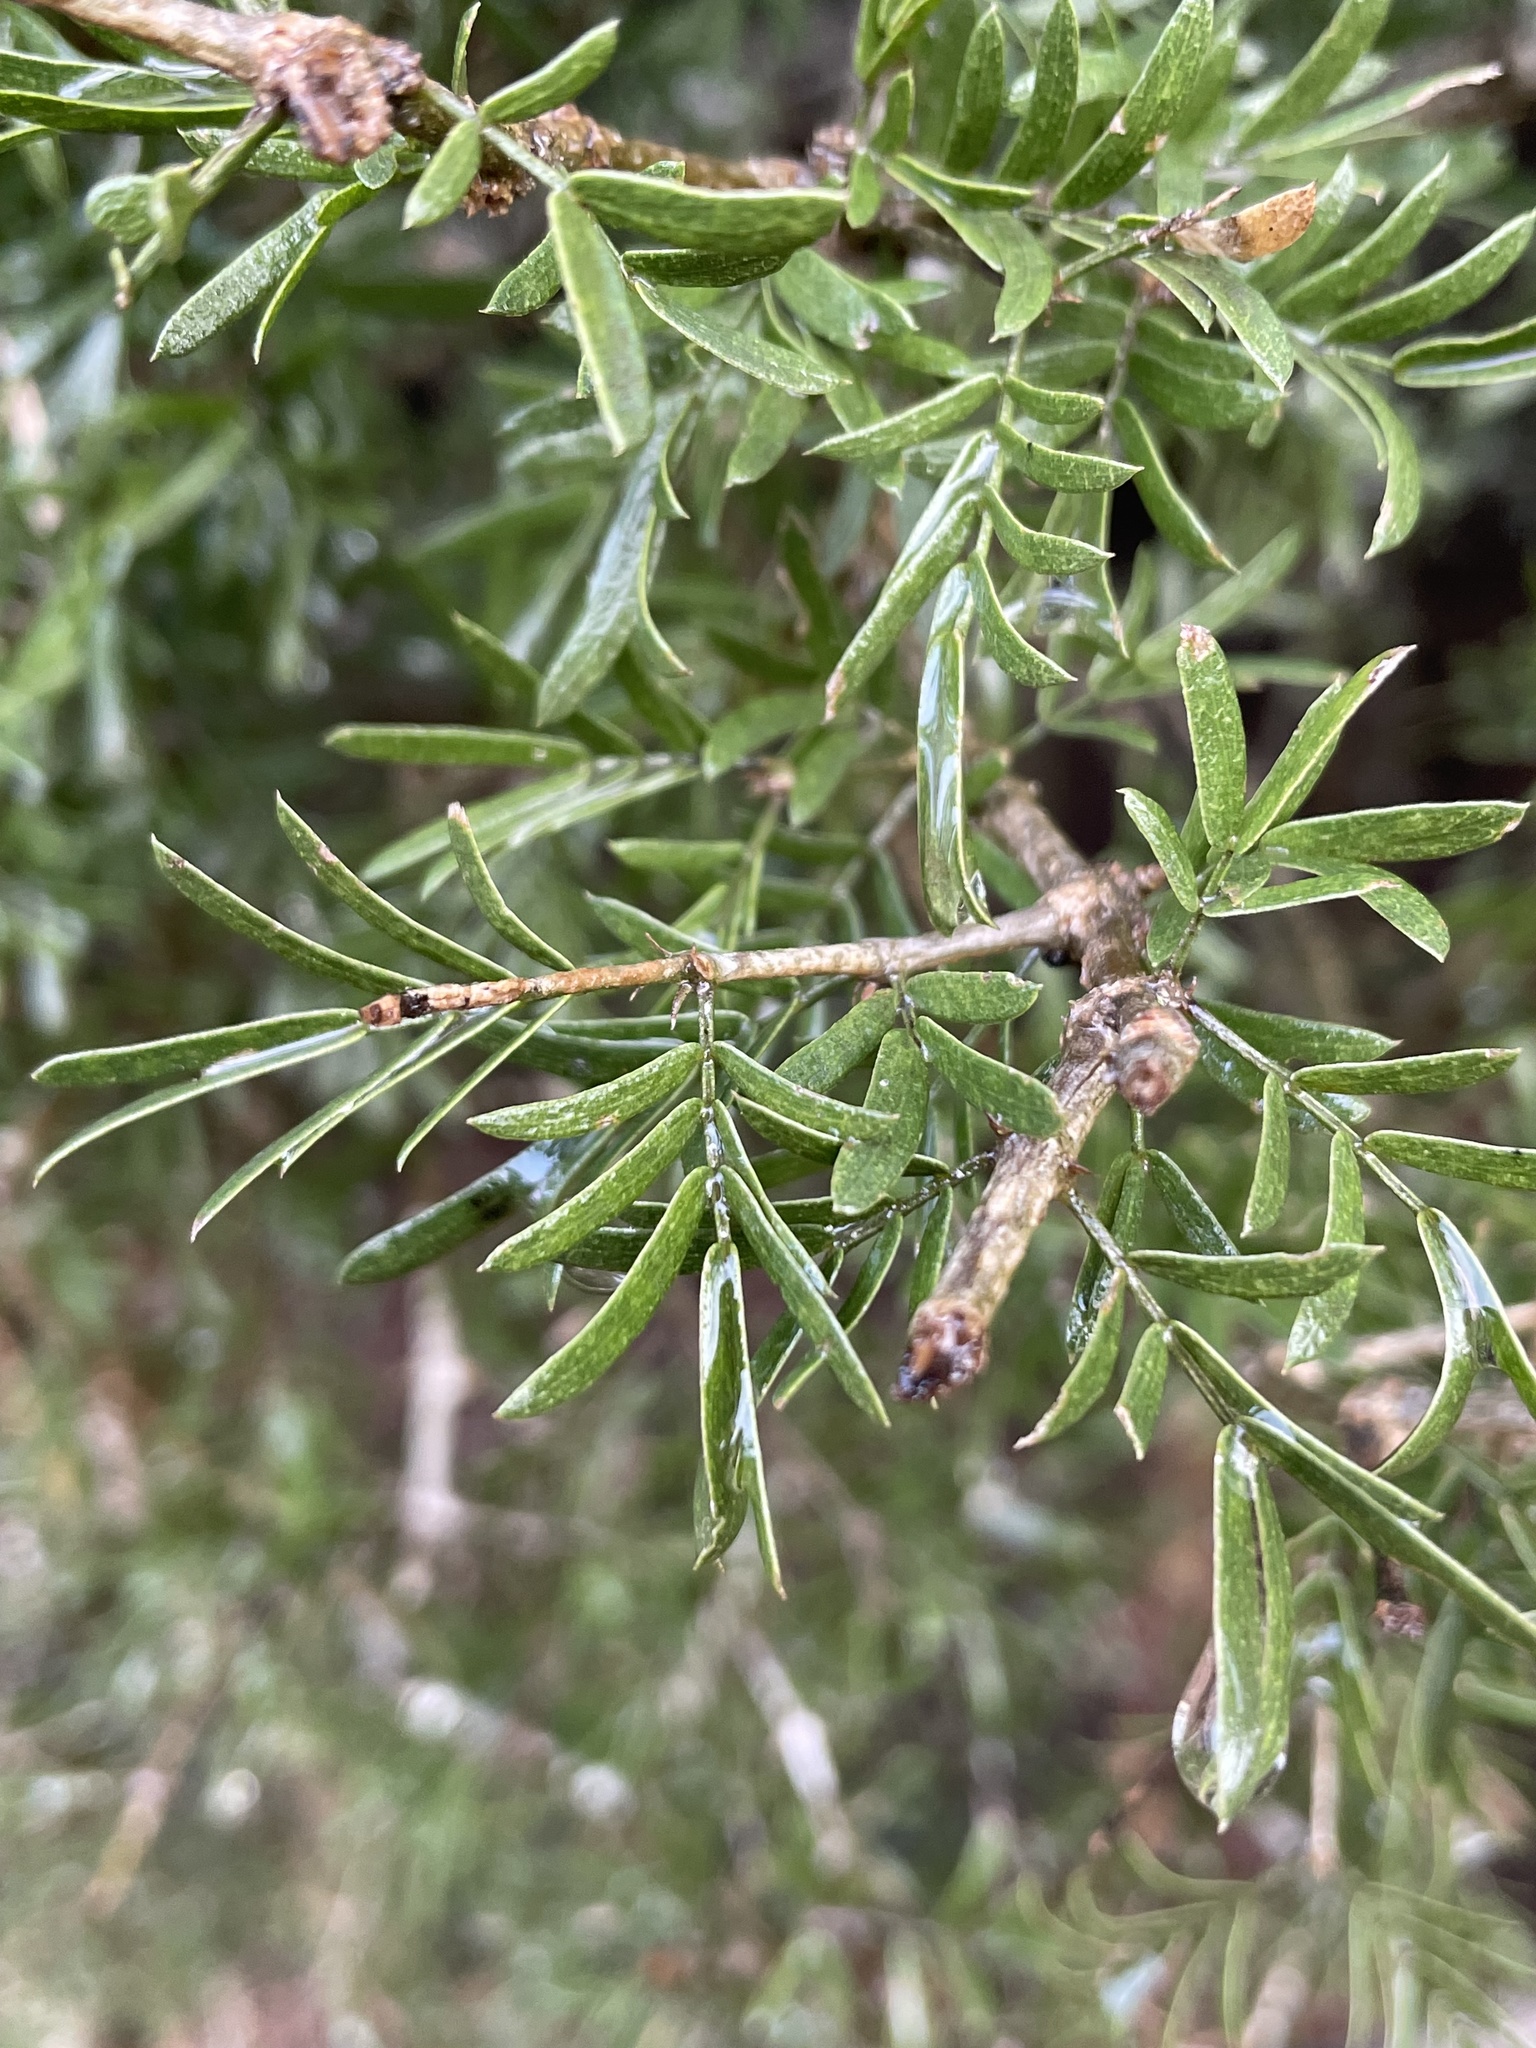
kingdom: Plantae
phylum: Tracheophyta
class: Magnoliopsida
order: Zygophyllales
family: Zygophyllaceae
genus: Porlieria
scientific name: Porlieria angustifolia
